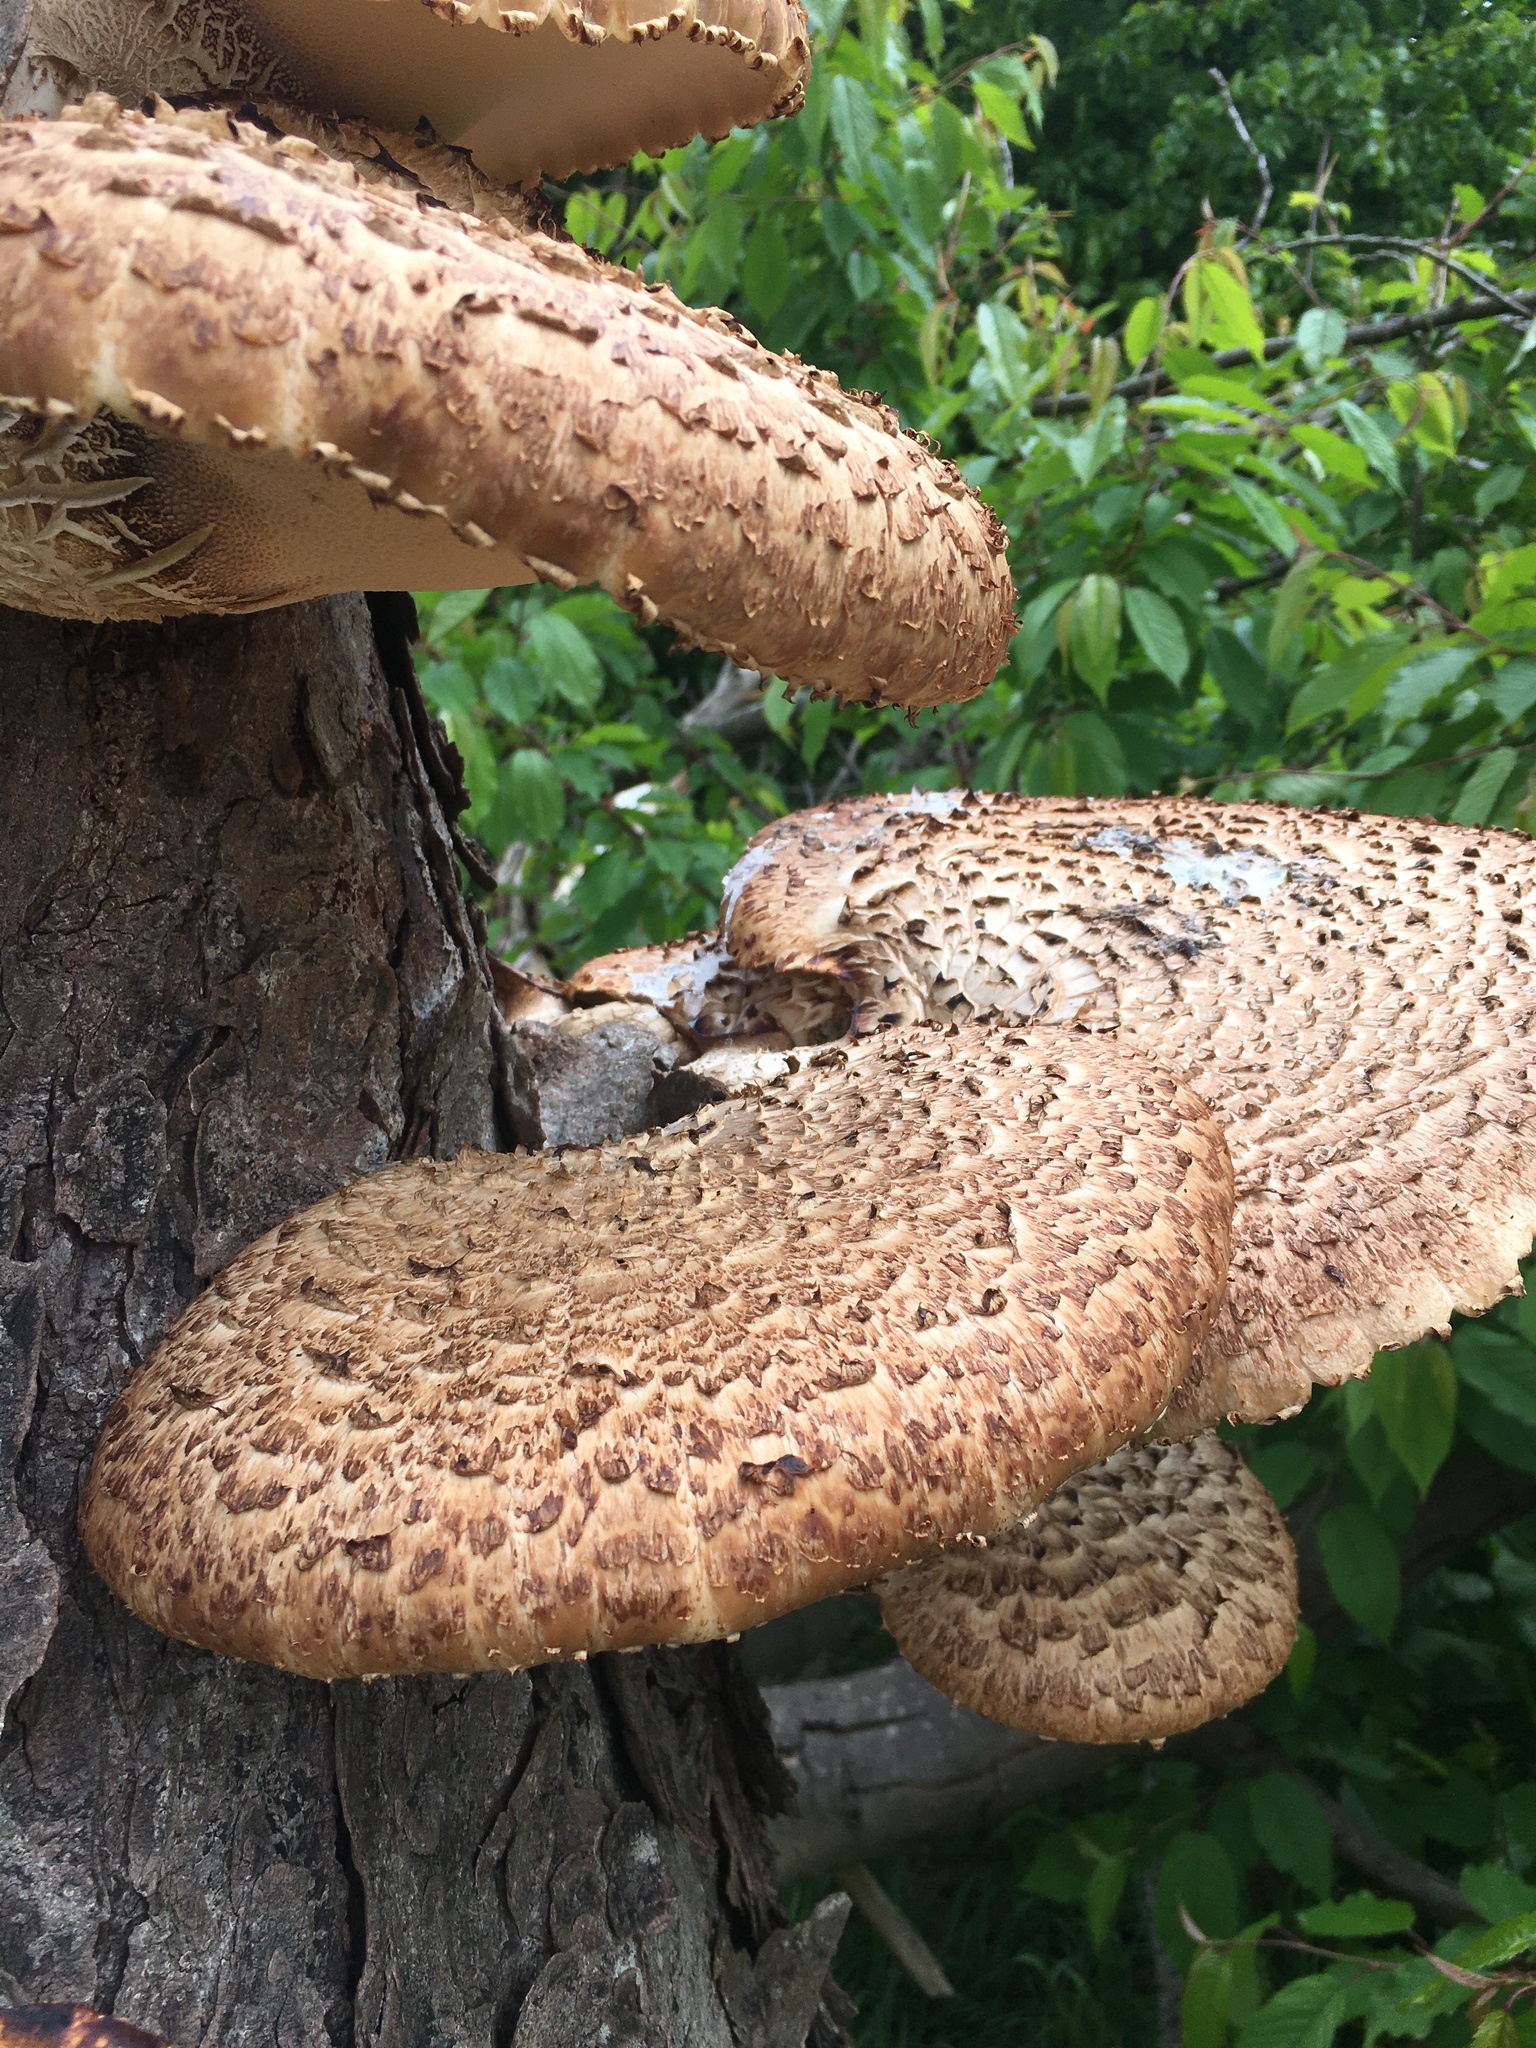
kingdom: Fungi
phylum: Basidiomycota
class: Agaricomycetes
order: Polyporales
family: Polyporaceae
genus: Cerioporus
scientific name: Cerioporus squamosus
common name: Dryad's saddle
